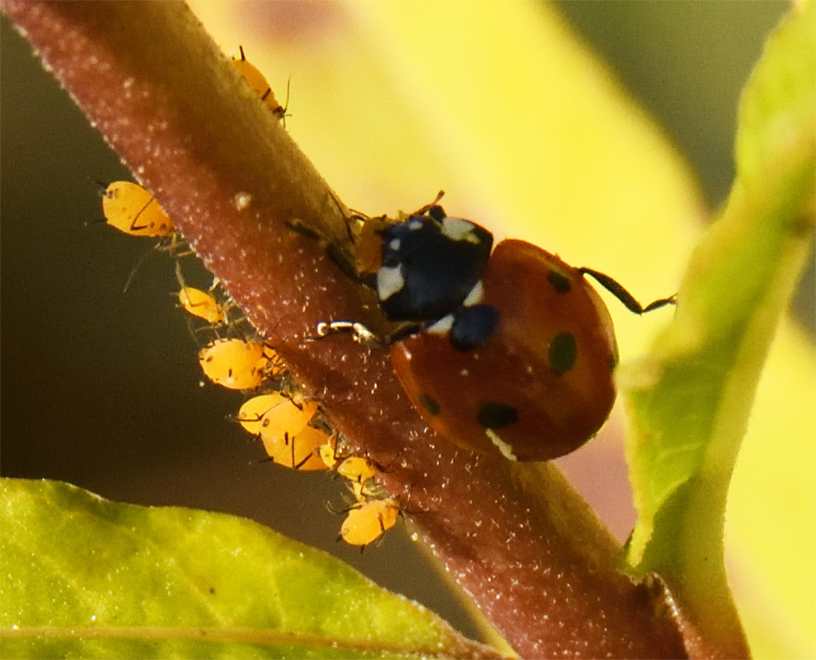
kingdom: Animalia
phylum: Arthropoda
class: Insecta
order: Coleoptera
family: Coccinellidae
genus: Coccinella
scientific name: Coccinella septempunctata
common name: Sevenspotted lady beetle
